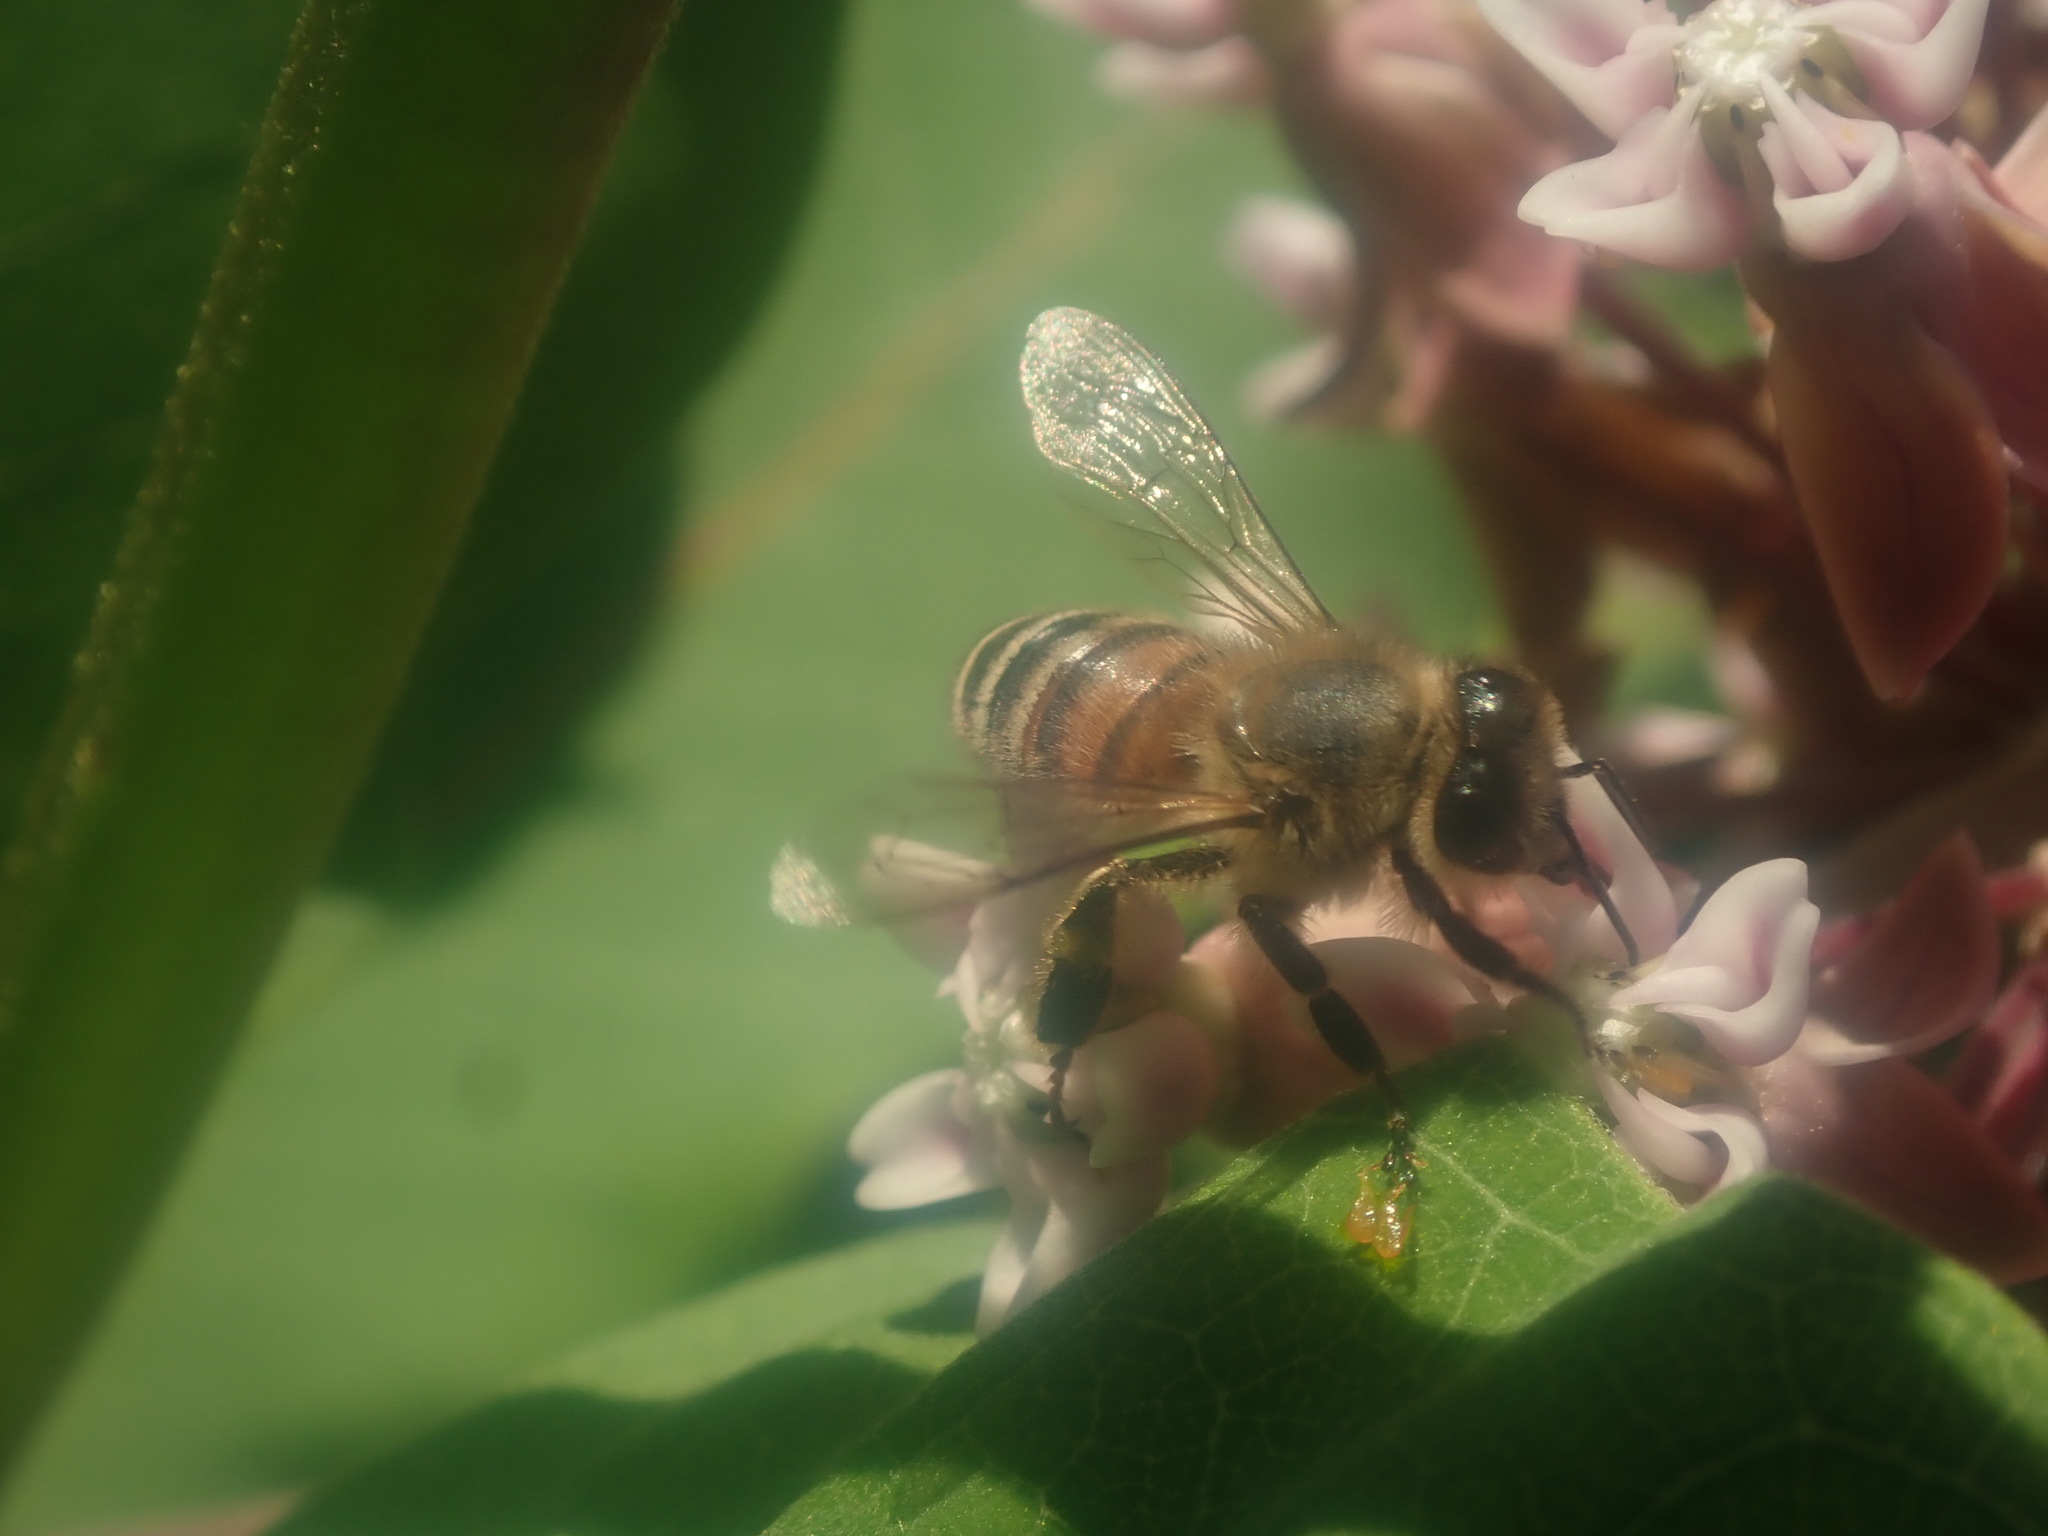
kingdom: Animalia
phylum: Arthropoda
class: Insecta
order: Hymenoptera
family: Apidae
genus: Apis
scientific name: Apis mellifera
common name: Honey bee
